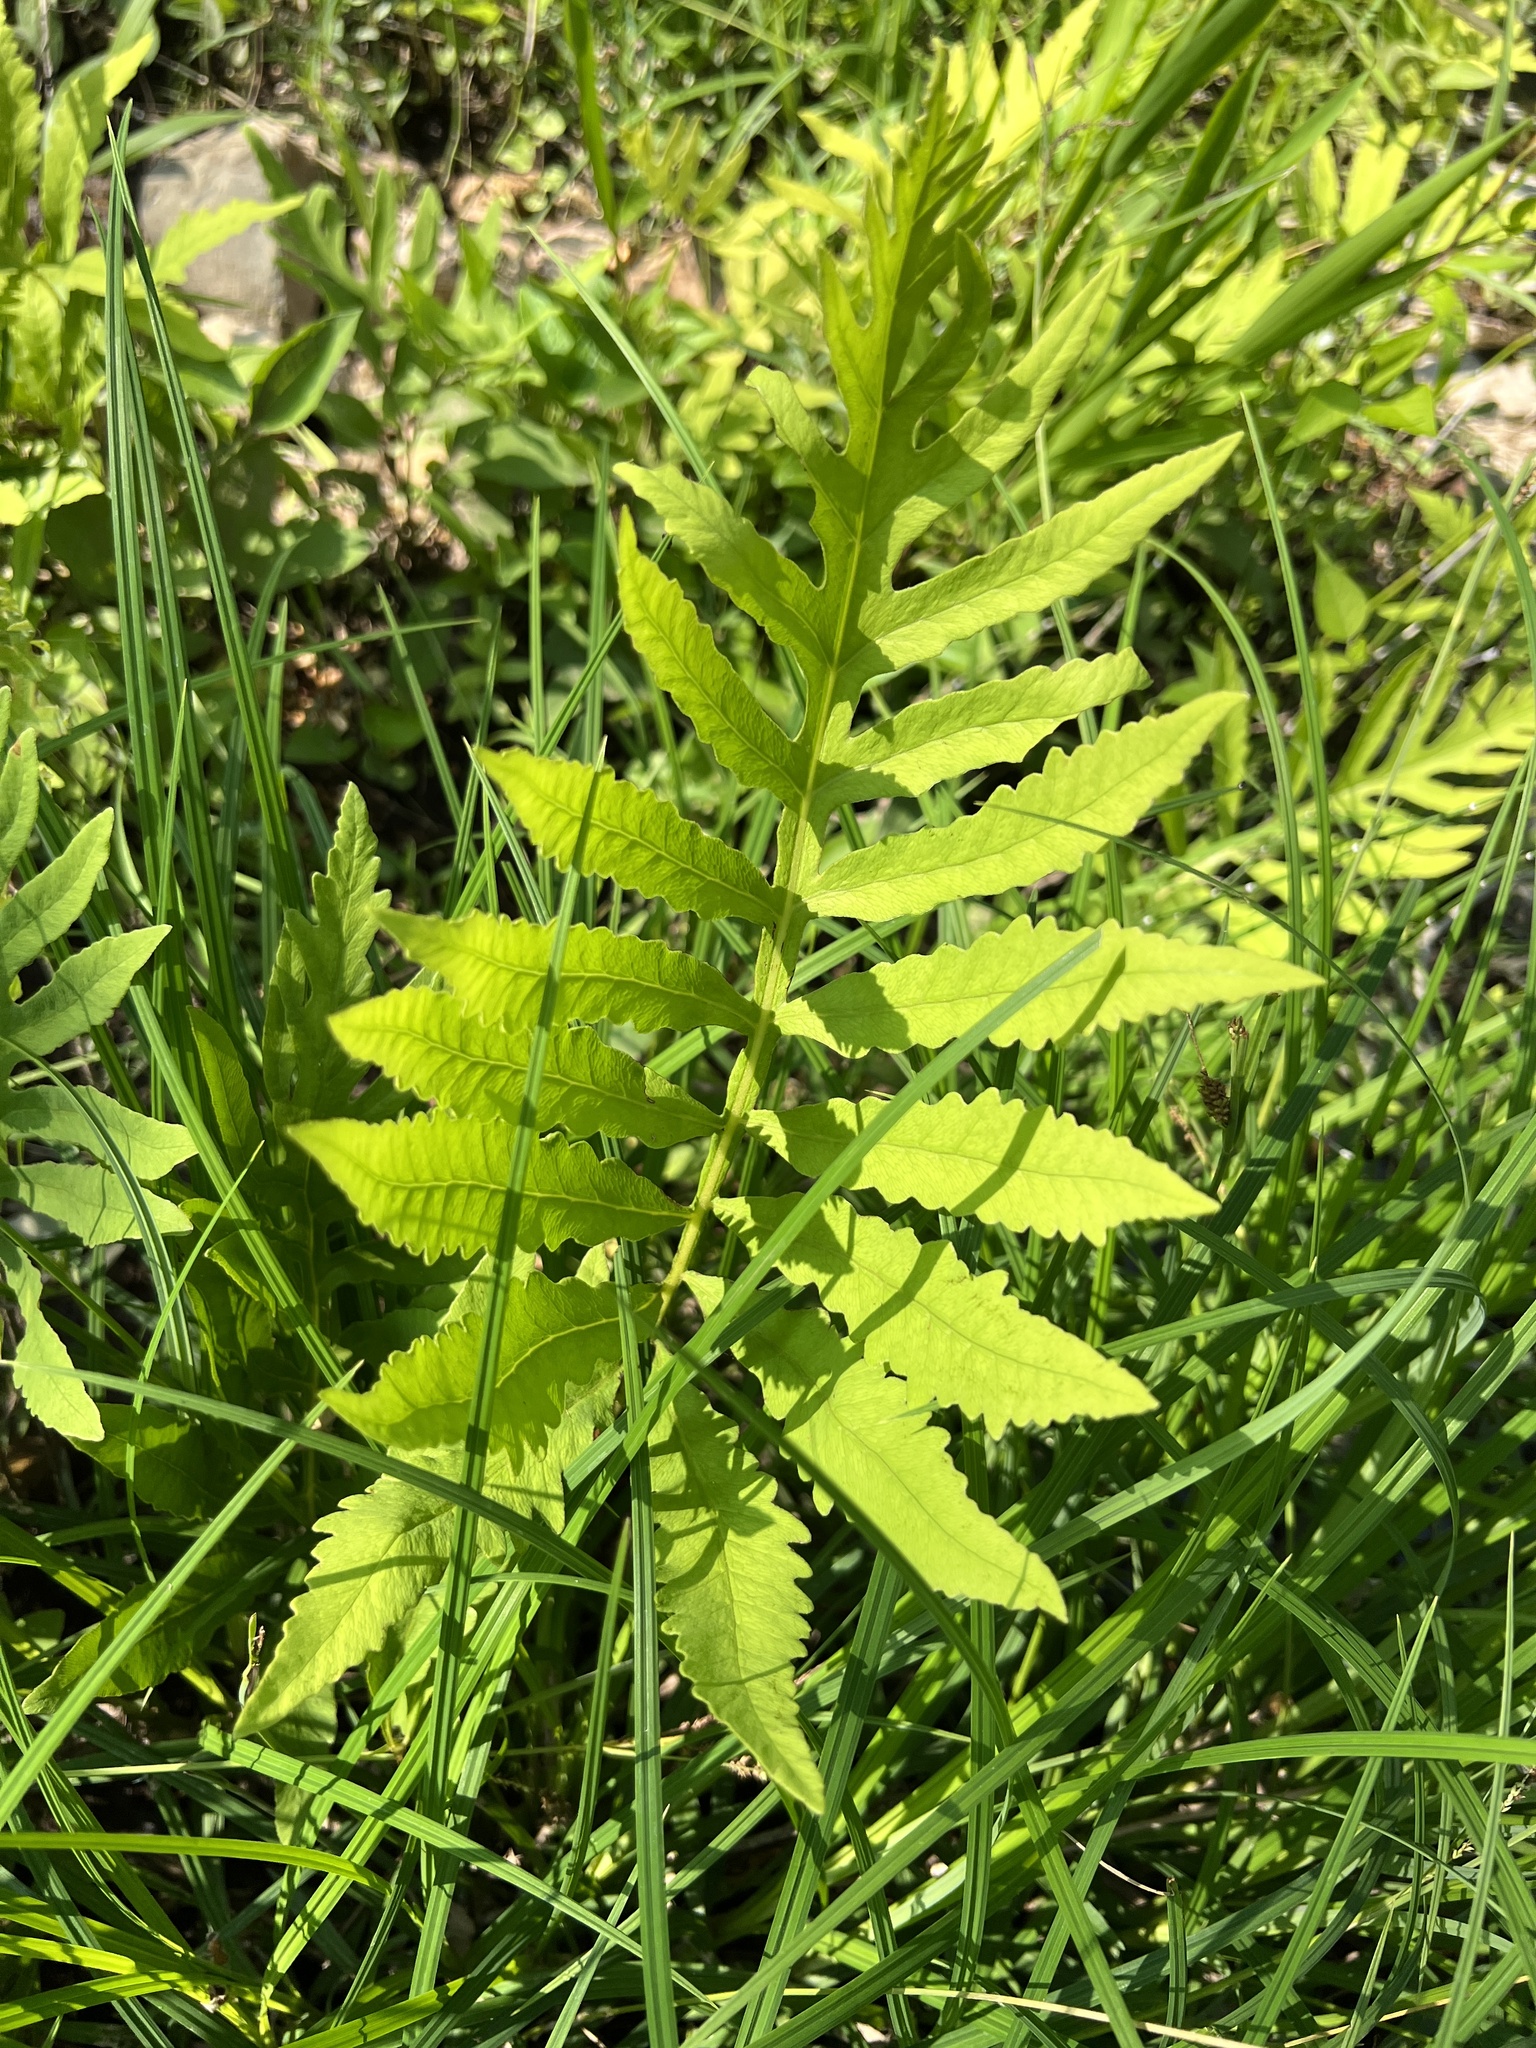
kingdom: Plantae
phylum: Tracheophyta
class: Polypodiopsida
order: Polypodiales
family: Onocleaceae
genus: Onoclea
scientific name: Onoclea sensibilis
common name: Sensitive fern
